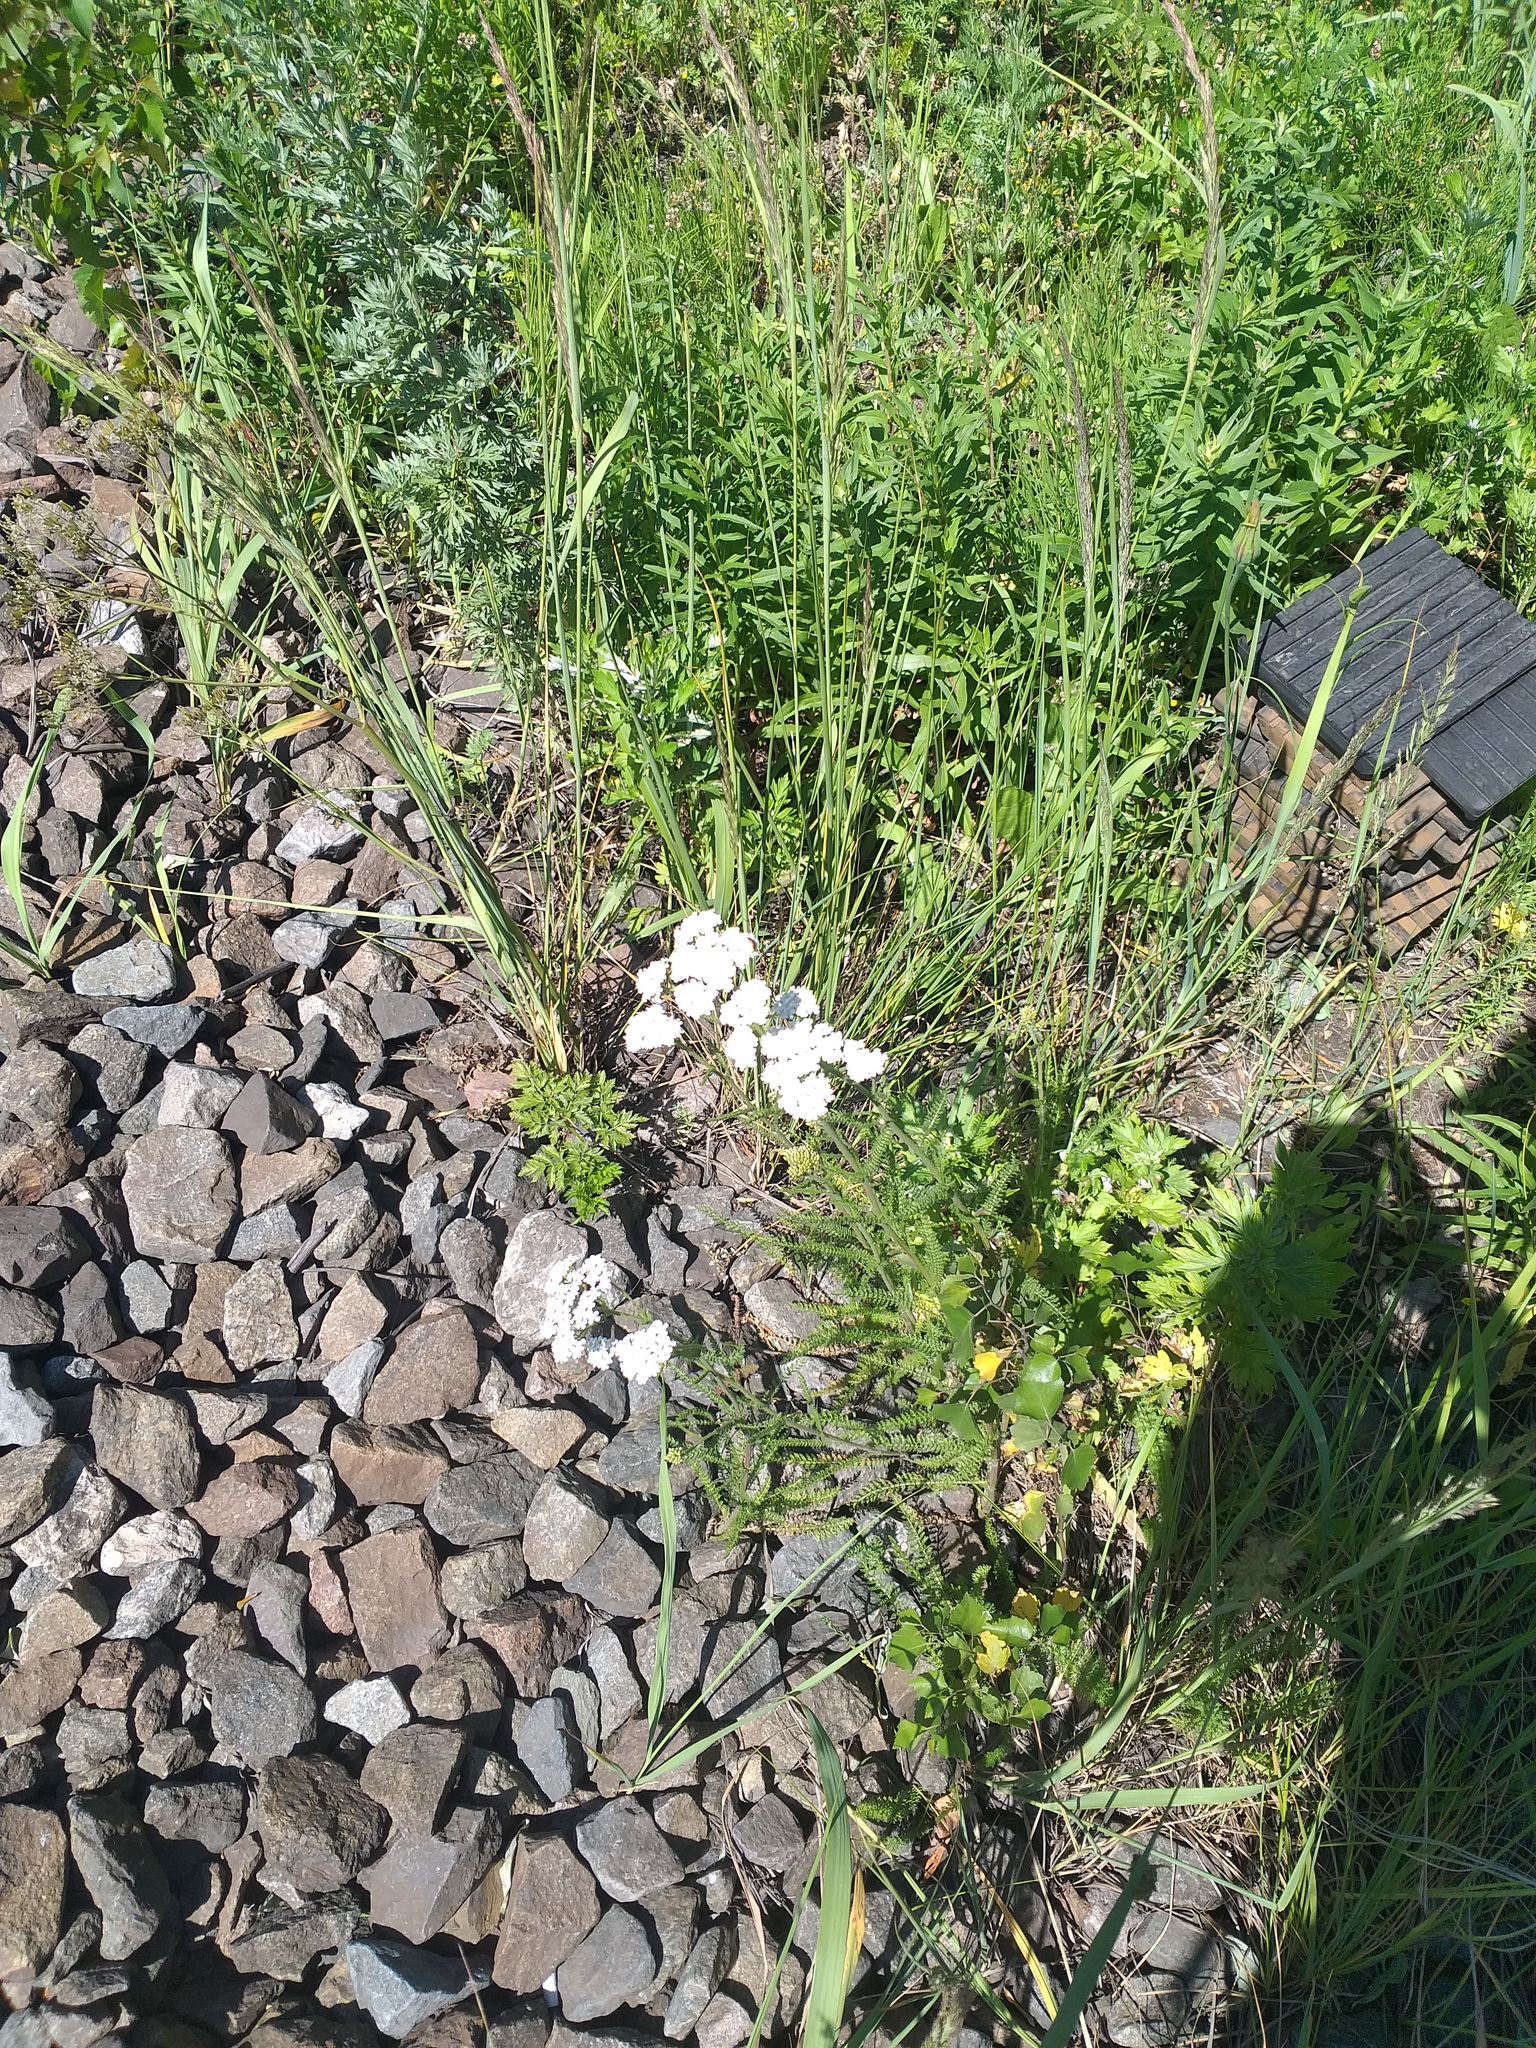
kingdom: Plantae
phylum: Tracheophyta
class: Magnoliopsida
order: Asterales
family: Asteraceae
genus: Achillea
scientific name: Achillea millefolium
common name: Yarrow
